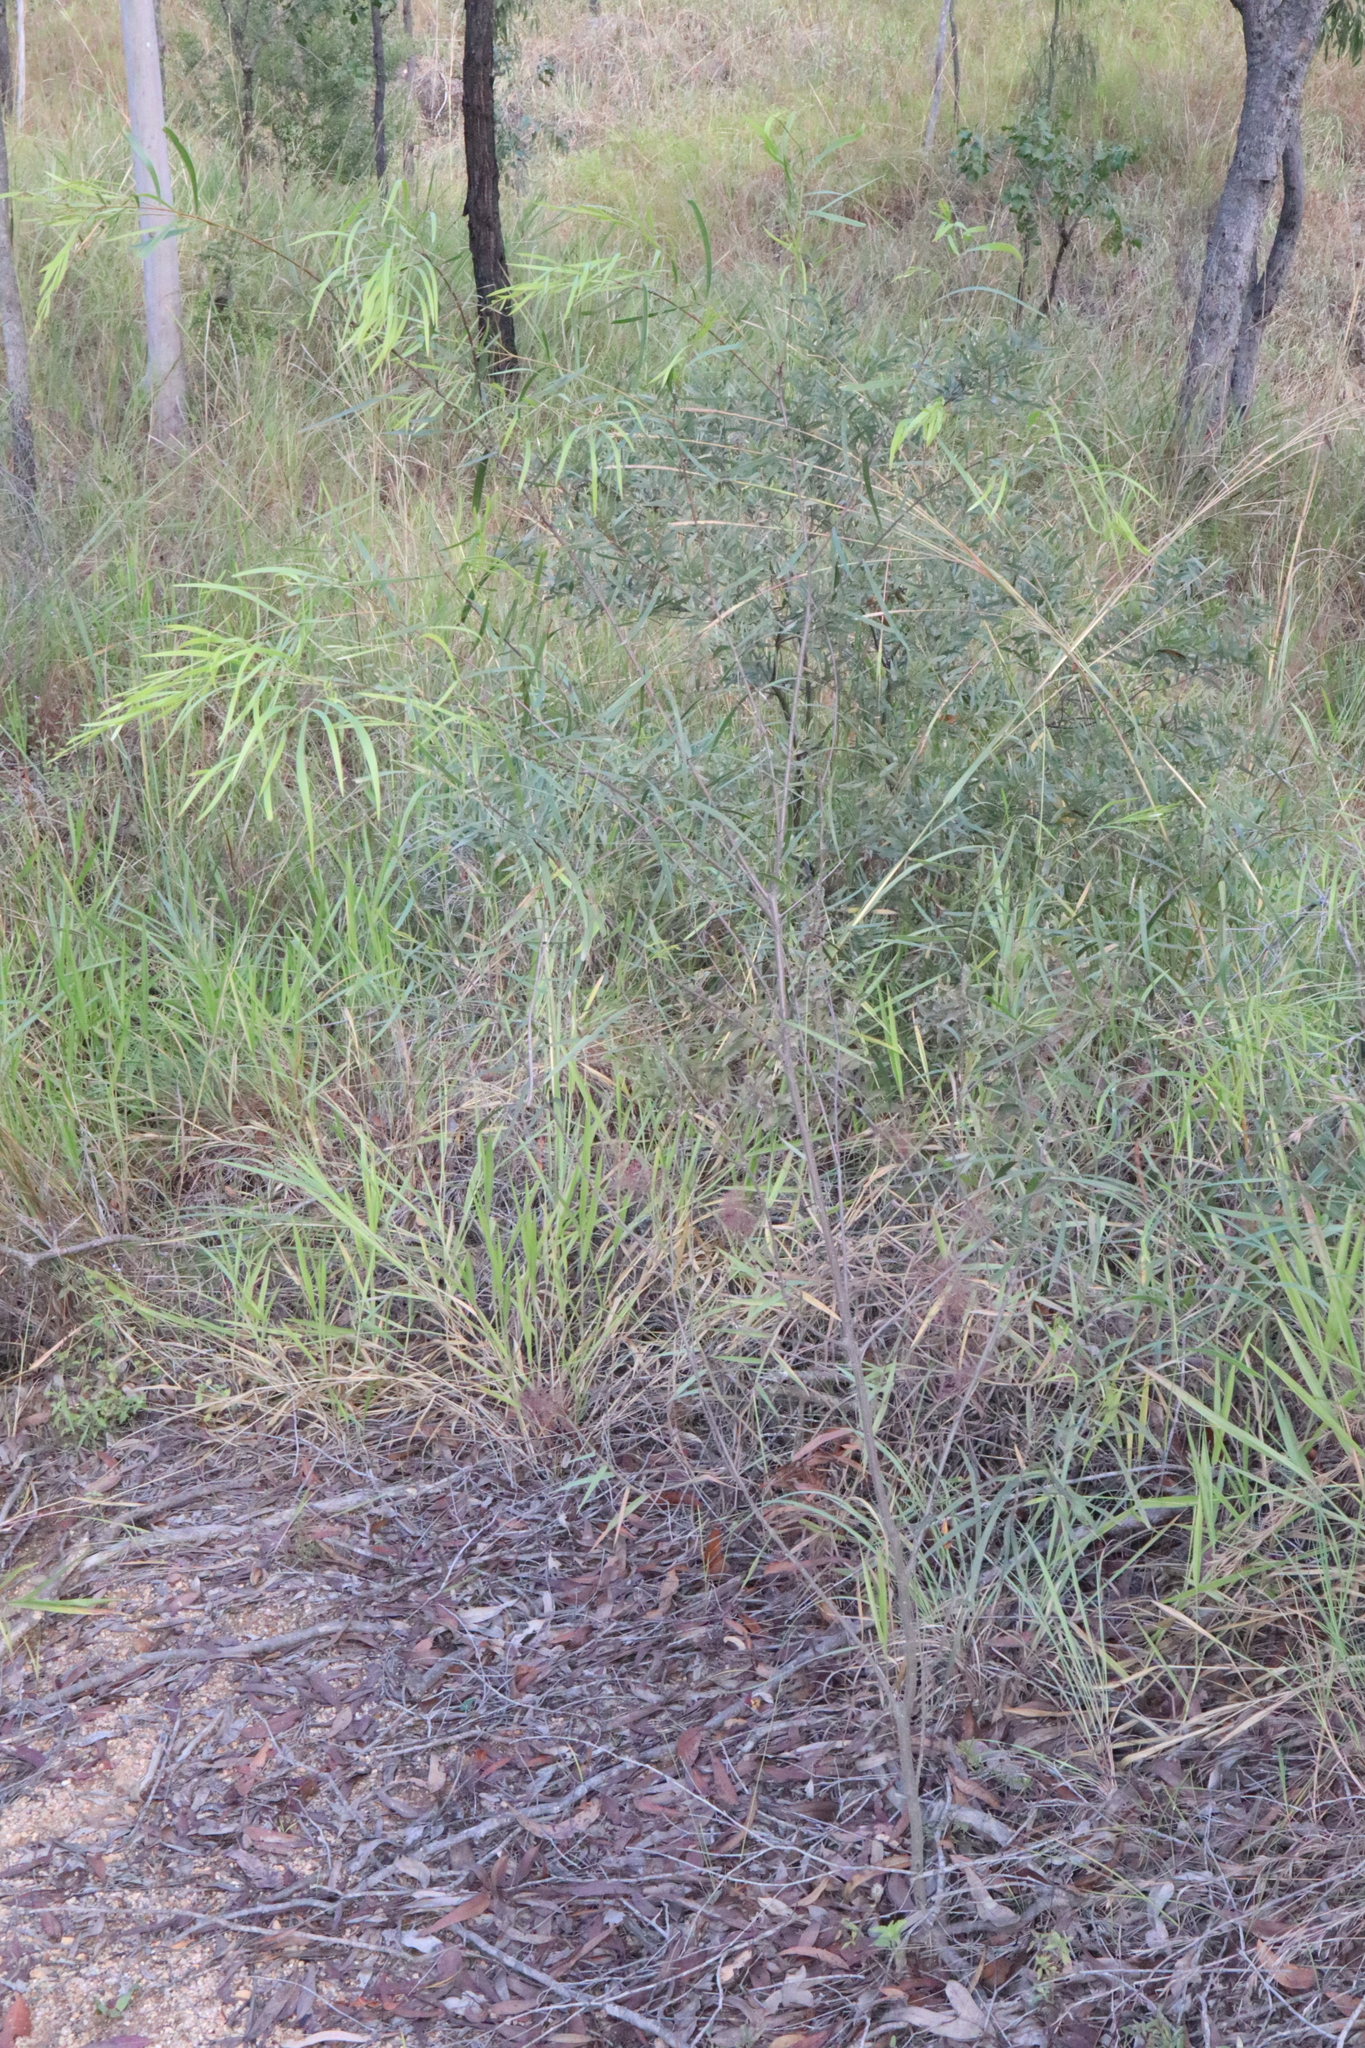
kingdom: Plantae
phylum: Tracheophyta
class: Magnoliopsida
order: Fabales
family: Fabaceae
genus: Acacia
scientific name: Acacia simsii
